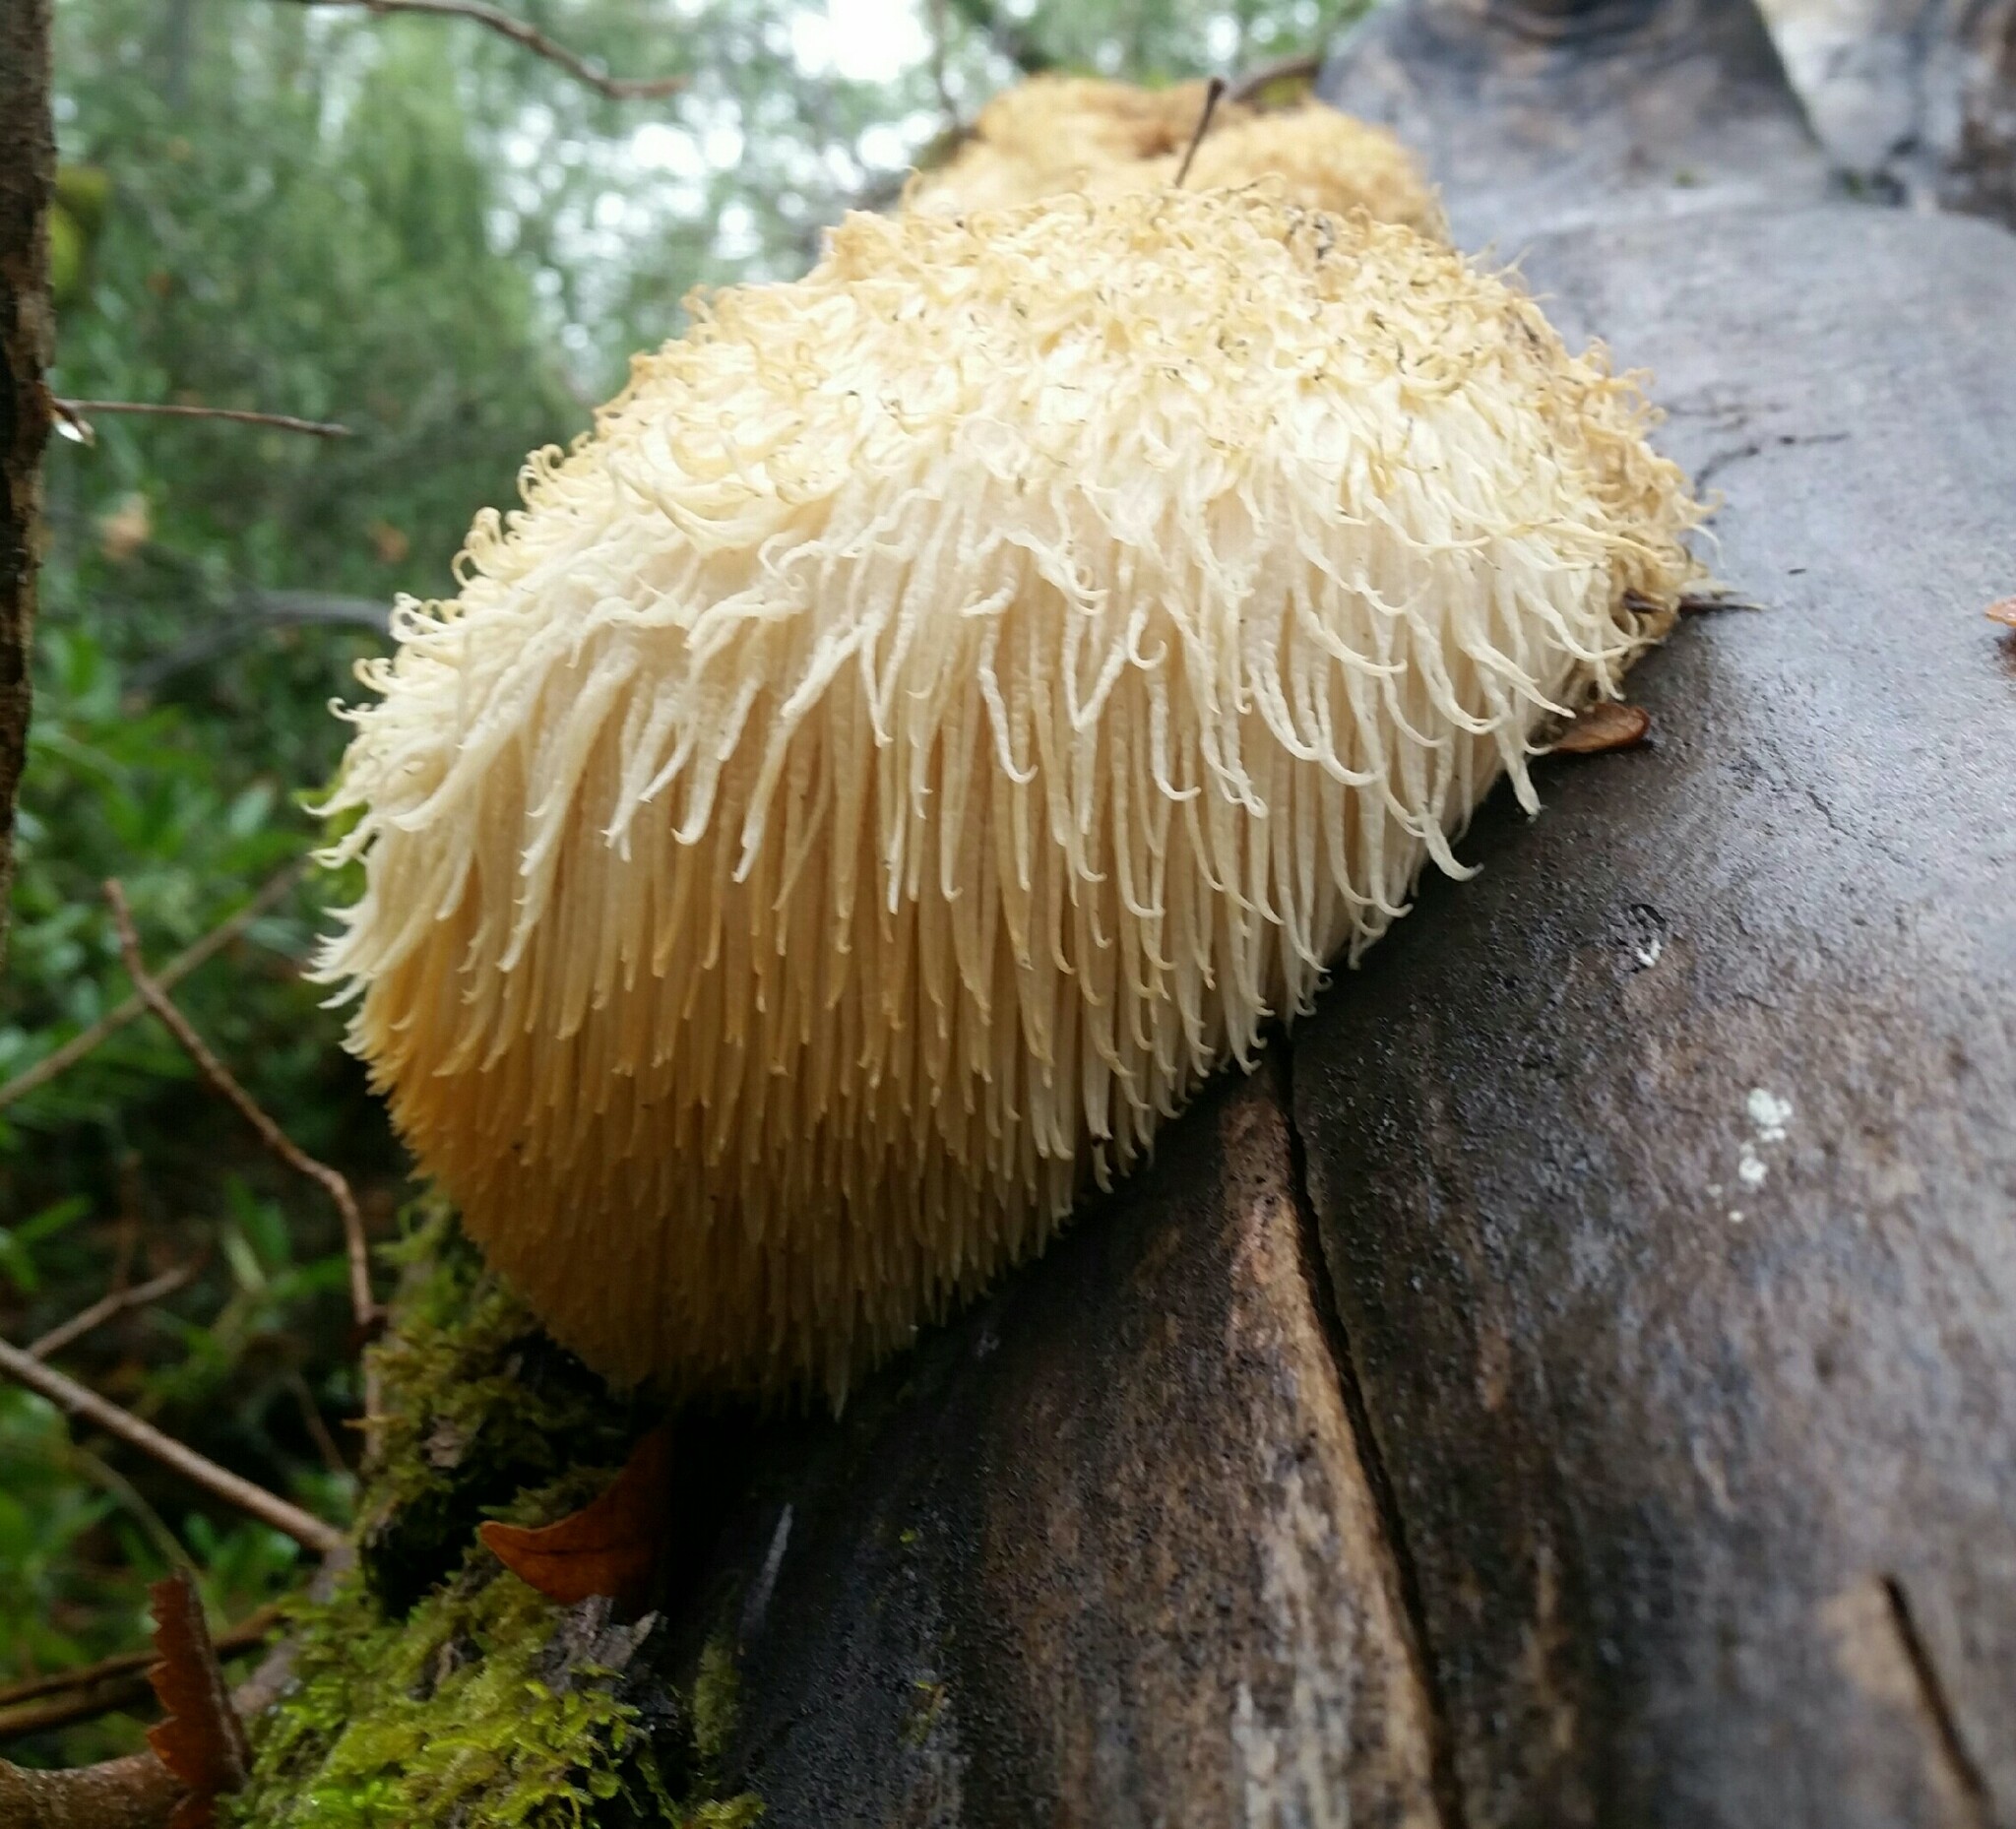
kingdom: Fungi
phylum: Basidiomycota
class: Agaricomycetes
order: Russulales
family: Hericiaceae
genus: Hericium
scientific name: Hericium erinaceus
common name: Bearded tooth
